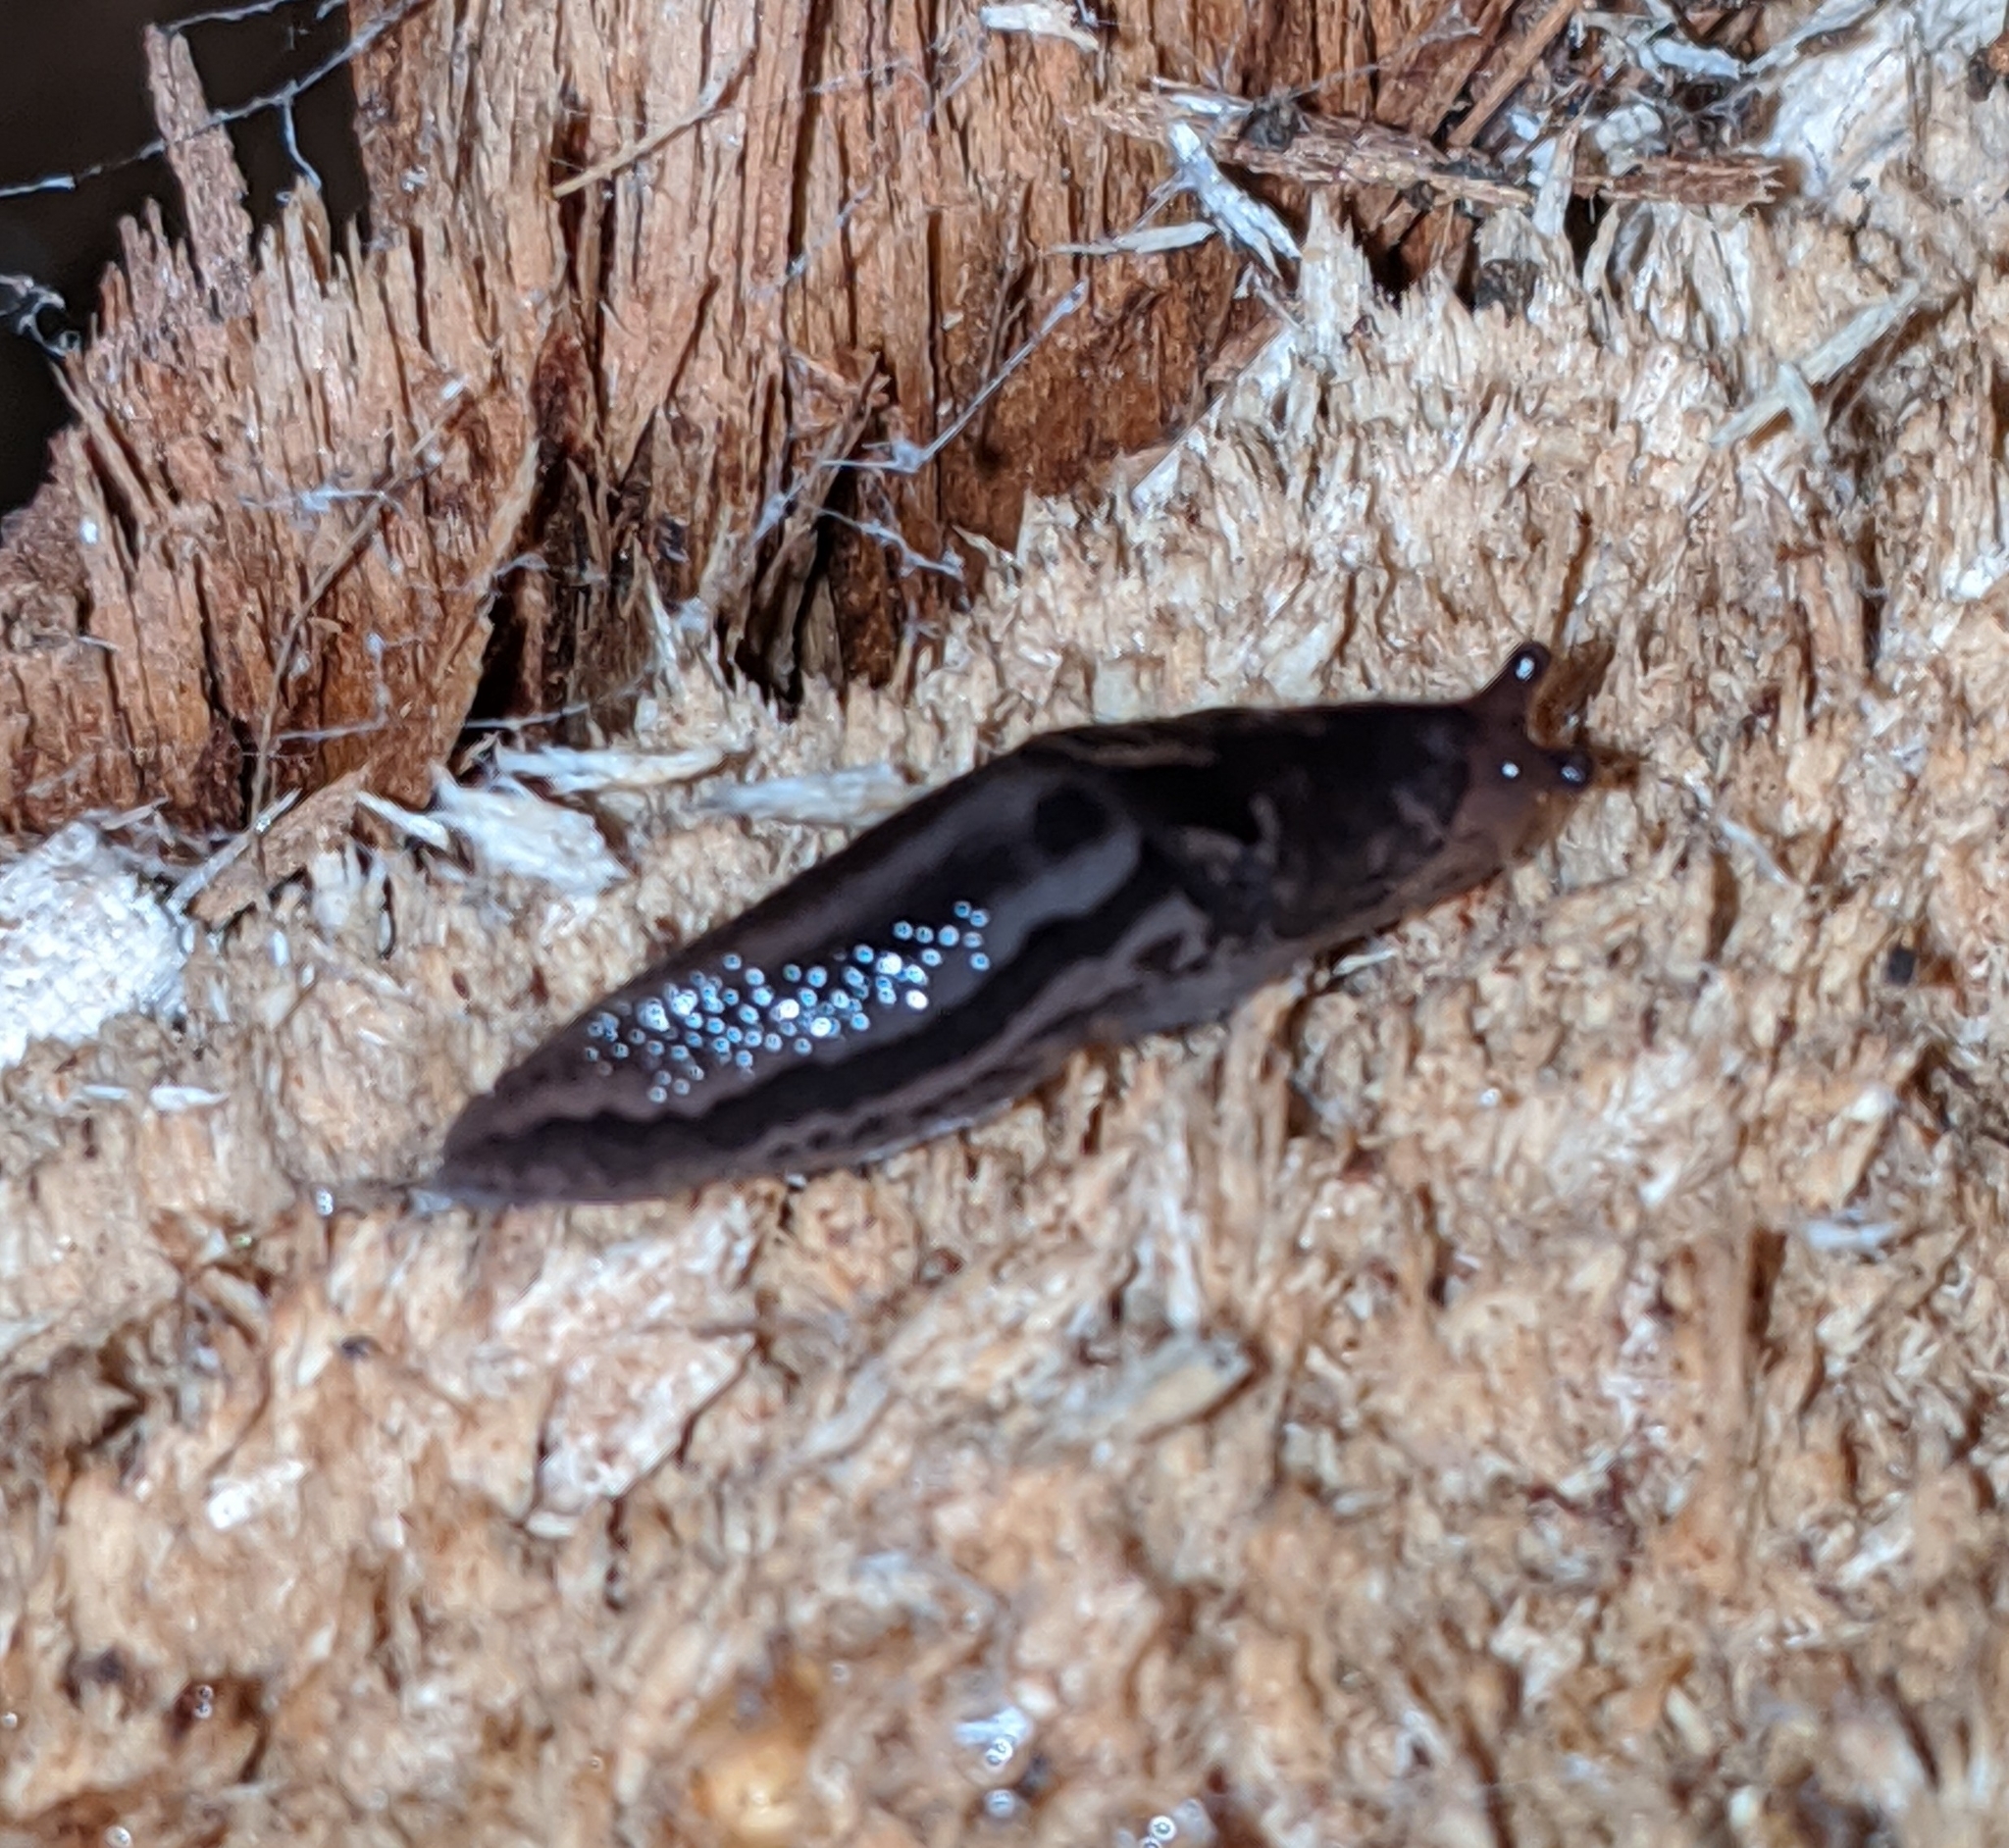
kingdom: Animalia
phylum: Mollusca
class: Gastropoda
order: Stylommatophora
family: Limacidae
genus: Limax
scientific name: Limax maximus
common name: Great grey slug
